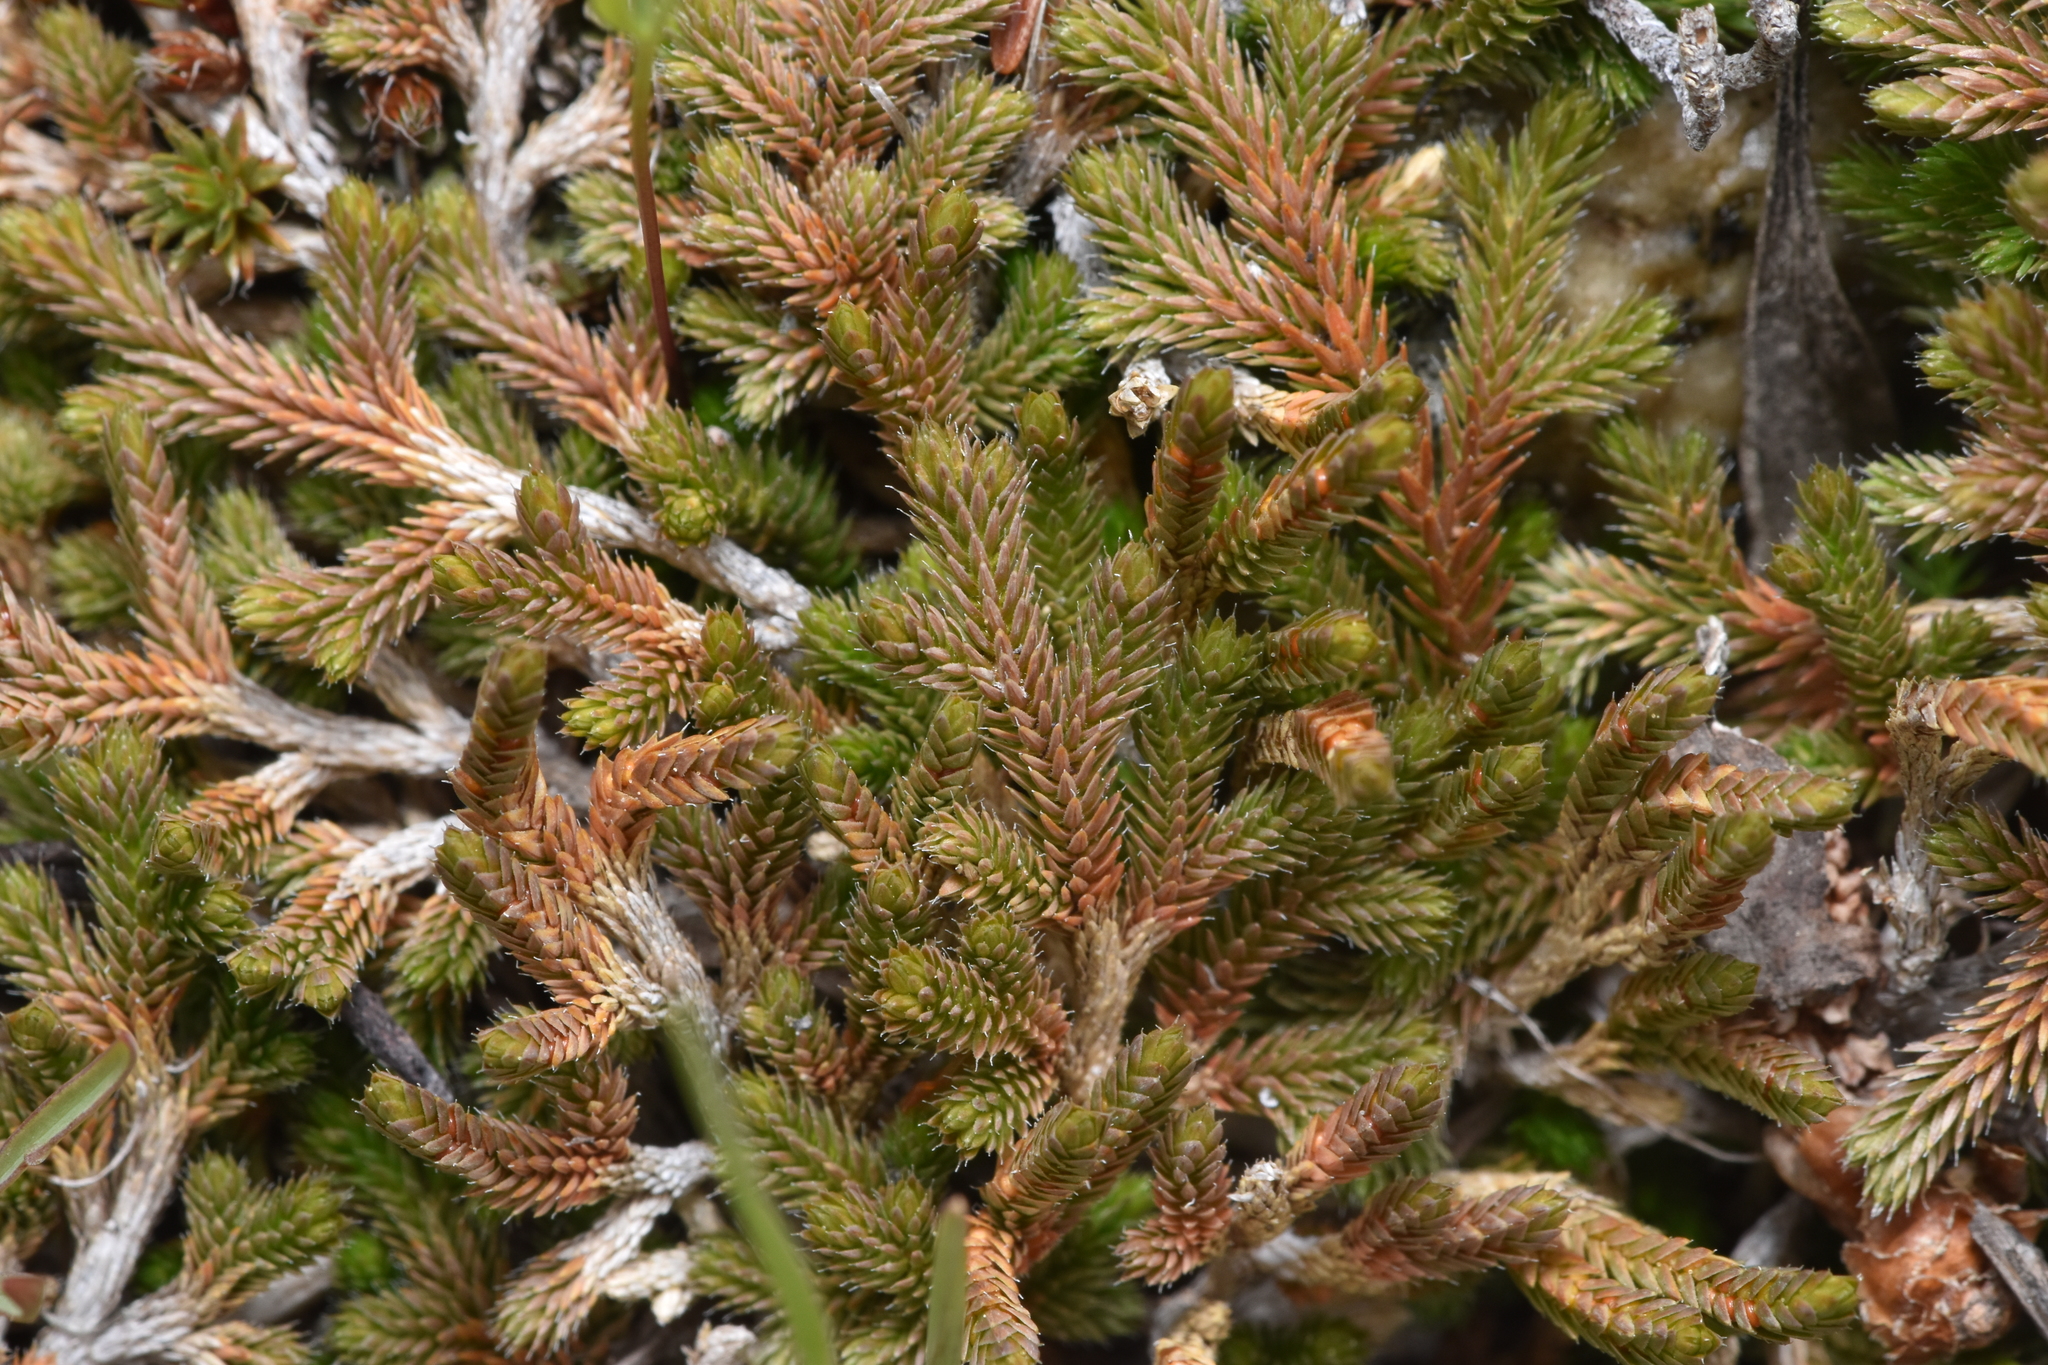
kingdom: Plantae
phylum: Tracheophyta
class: Lycopodiopsida
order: Selaginellales
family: Selaginellaceae
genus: Selaginella
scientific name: Selaginella wallacei
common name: Wallace's selaginella
